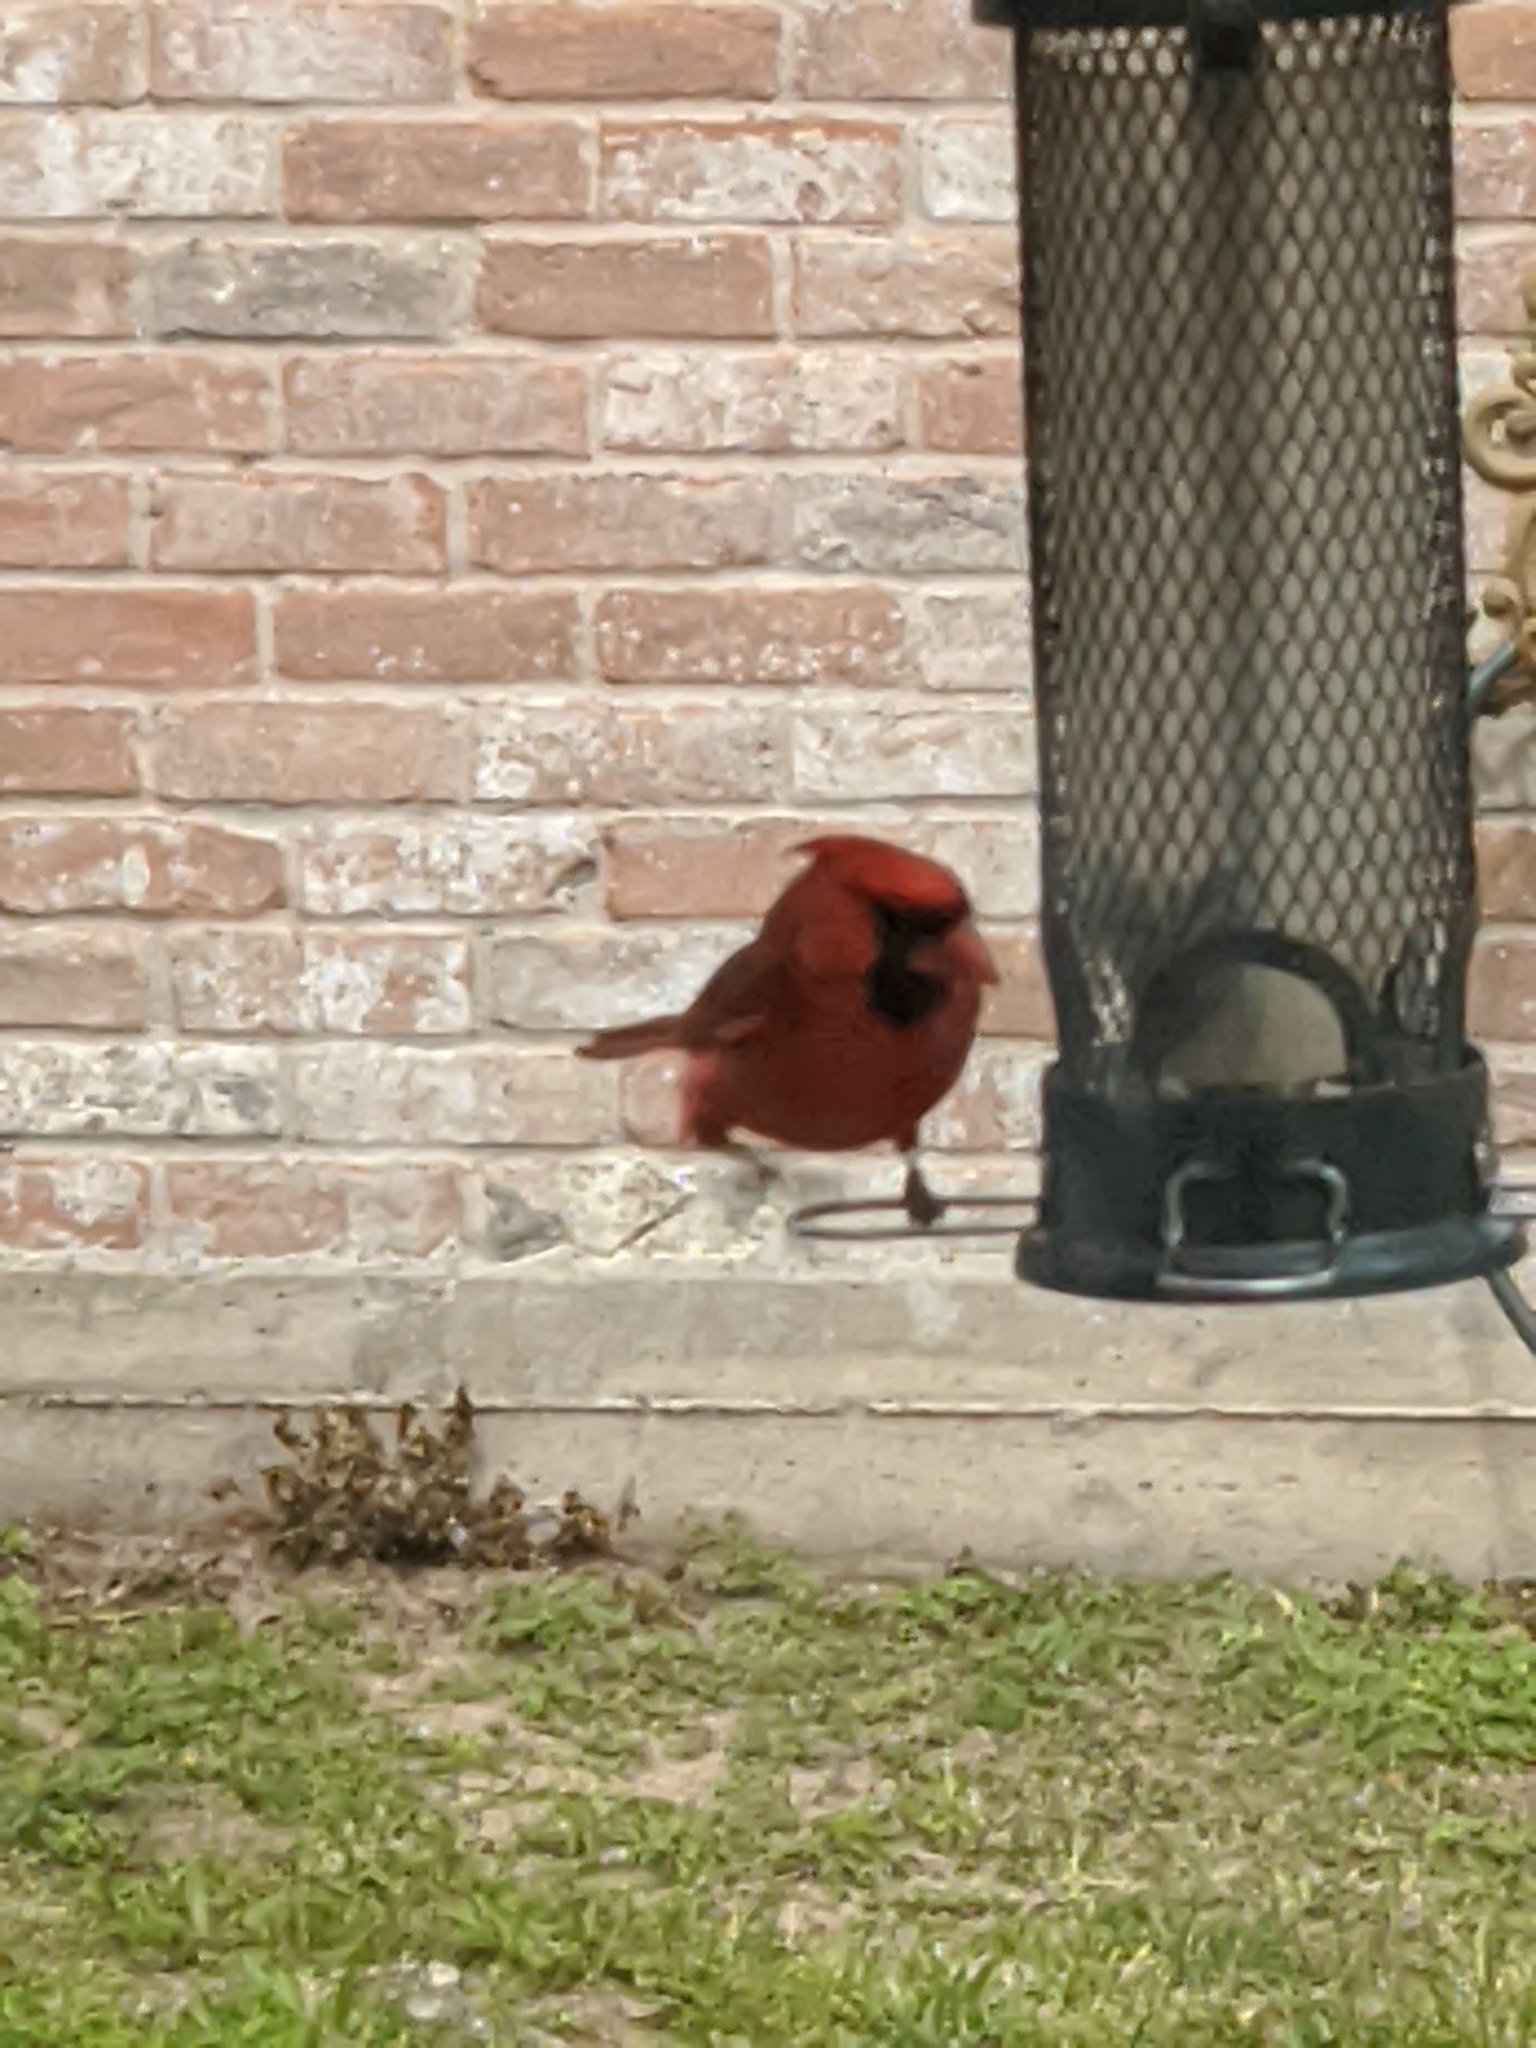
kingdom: Animalia
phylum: Chordata
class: Aves
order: Passeriformes
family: Cardinalidae
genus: Cardinalis
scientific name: Cardinalis cardinalis
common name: Northern cardinal
